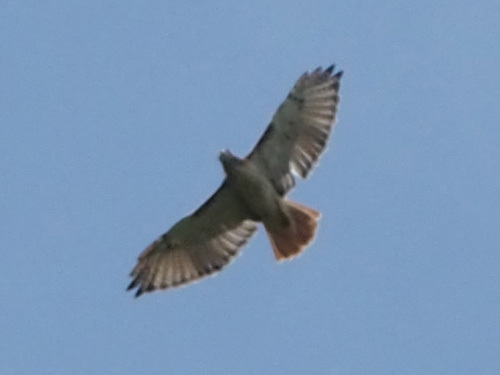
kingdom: Animalia
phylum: Chordata
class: Aves
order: Accipitriformes
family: Accipitridae
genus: Buteo
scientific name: Buteo jamaicensis
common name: Red-tailed hawk
